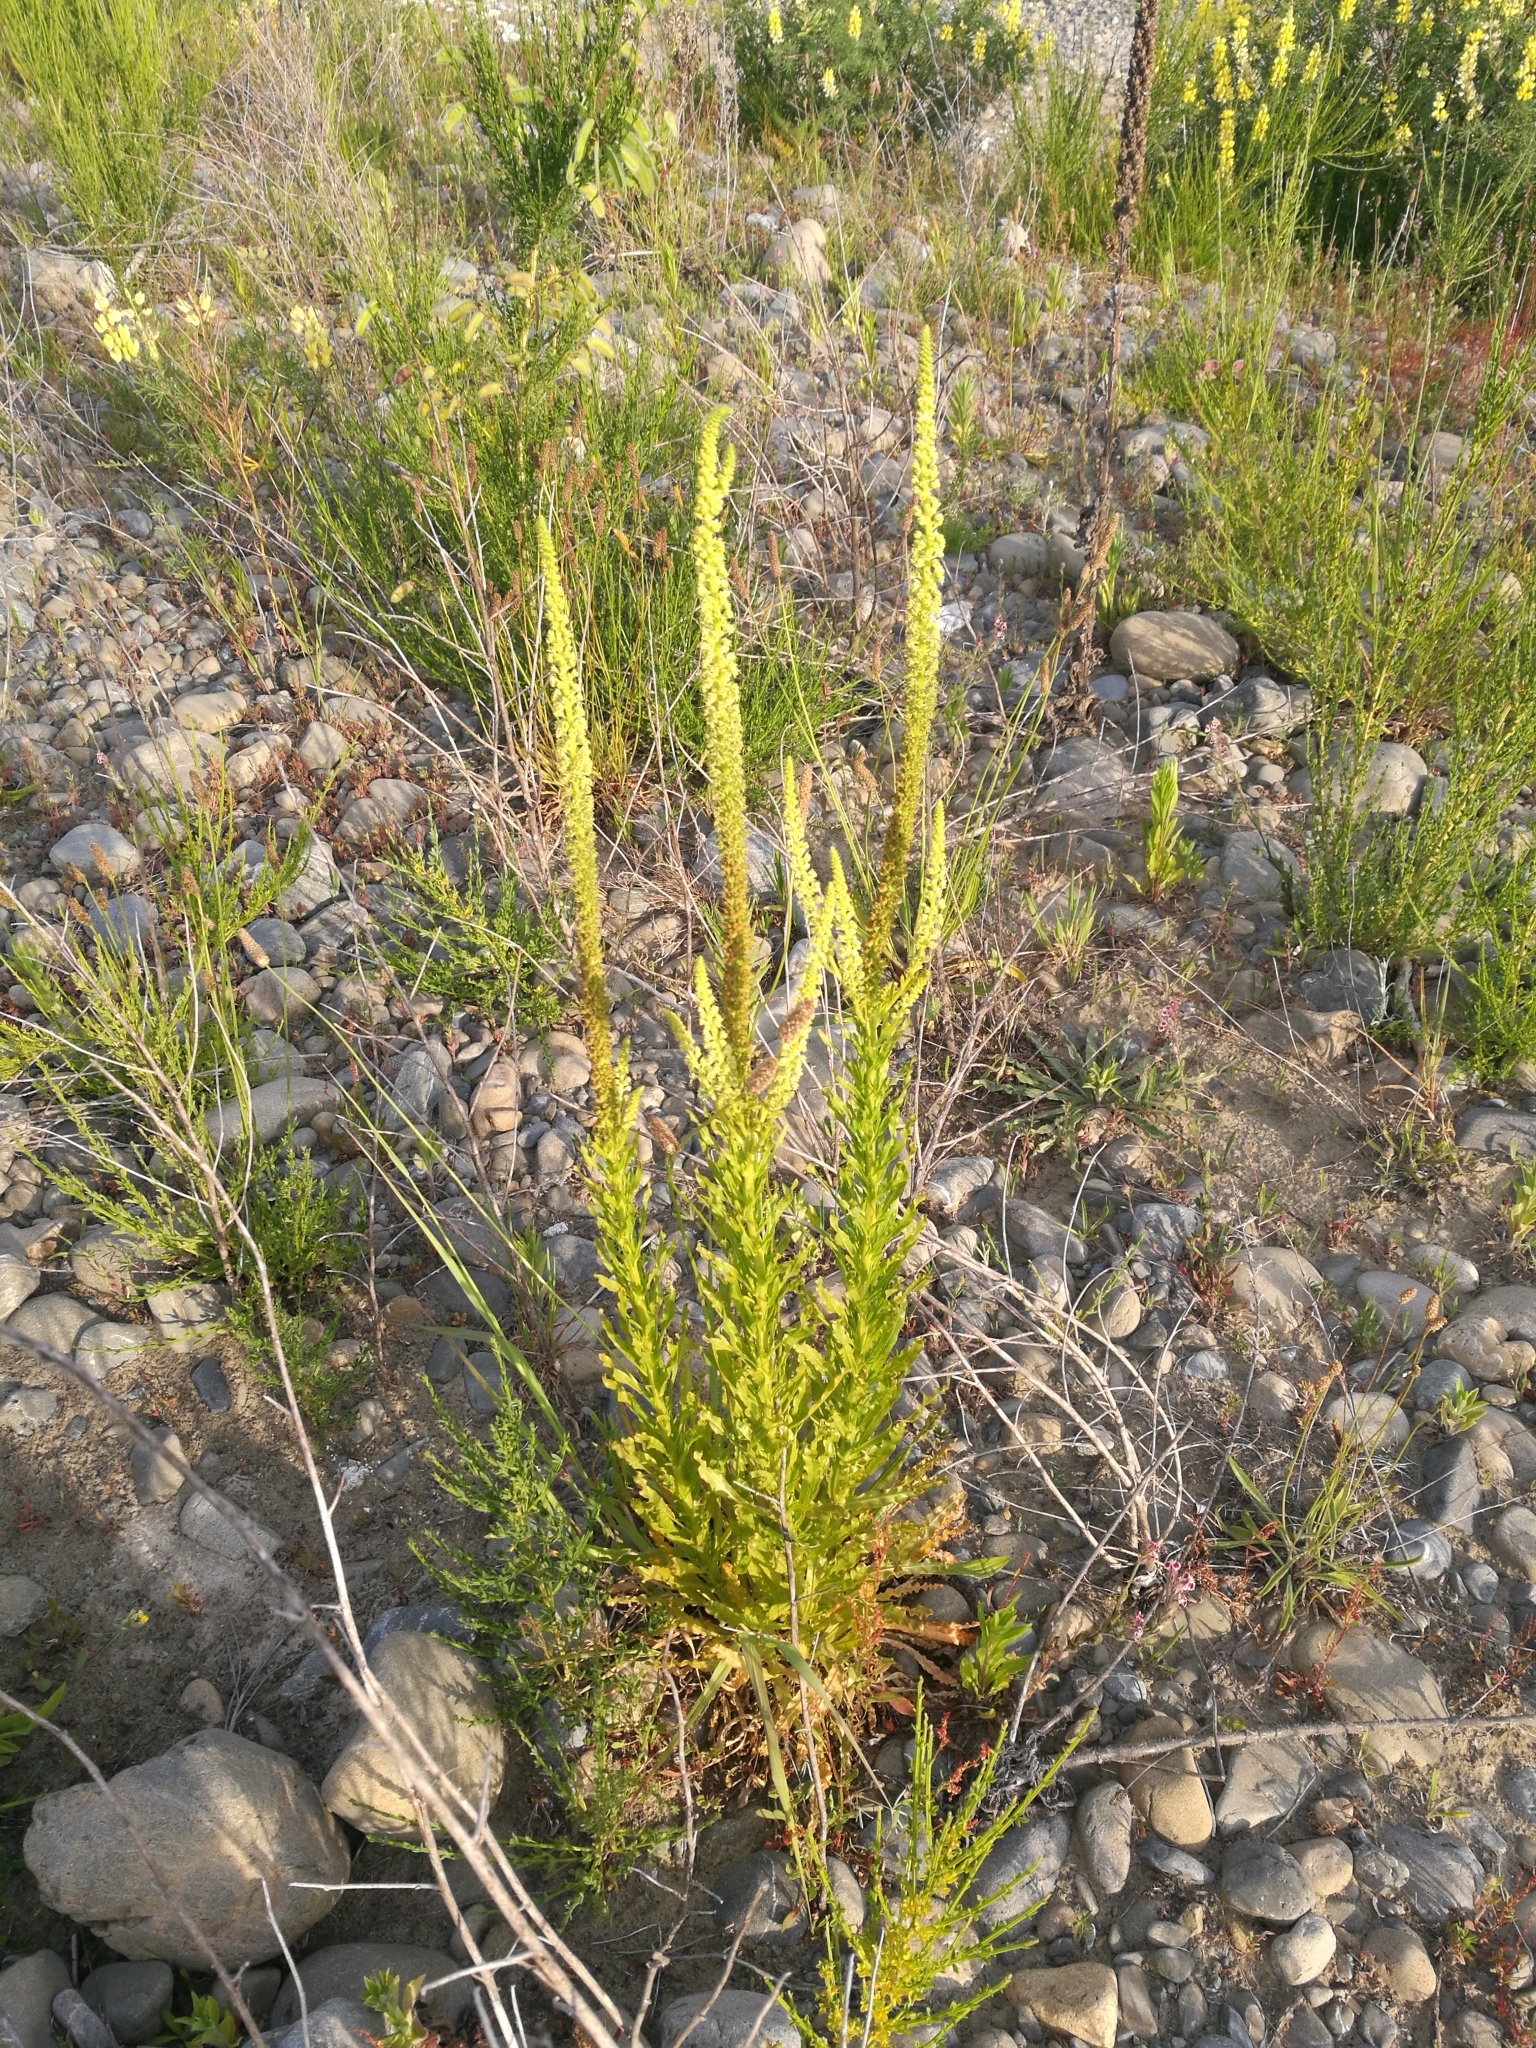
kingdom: Plantae
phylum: Tracheophyta
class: Magnoliopsida
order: Brassicales
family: Resedaceae
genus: Reseda
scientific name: Reseda luteola
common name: Weld
